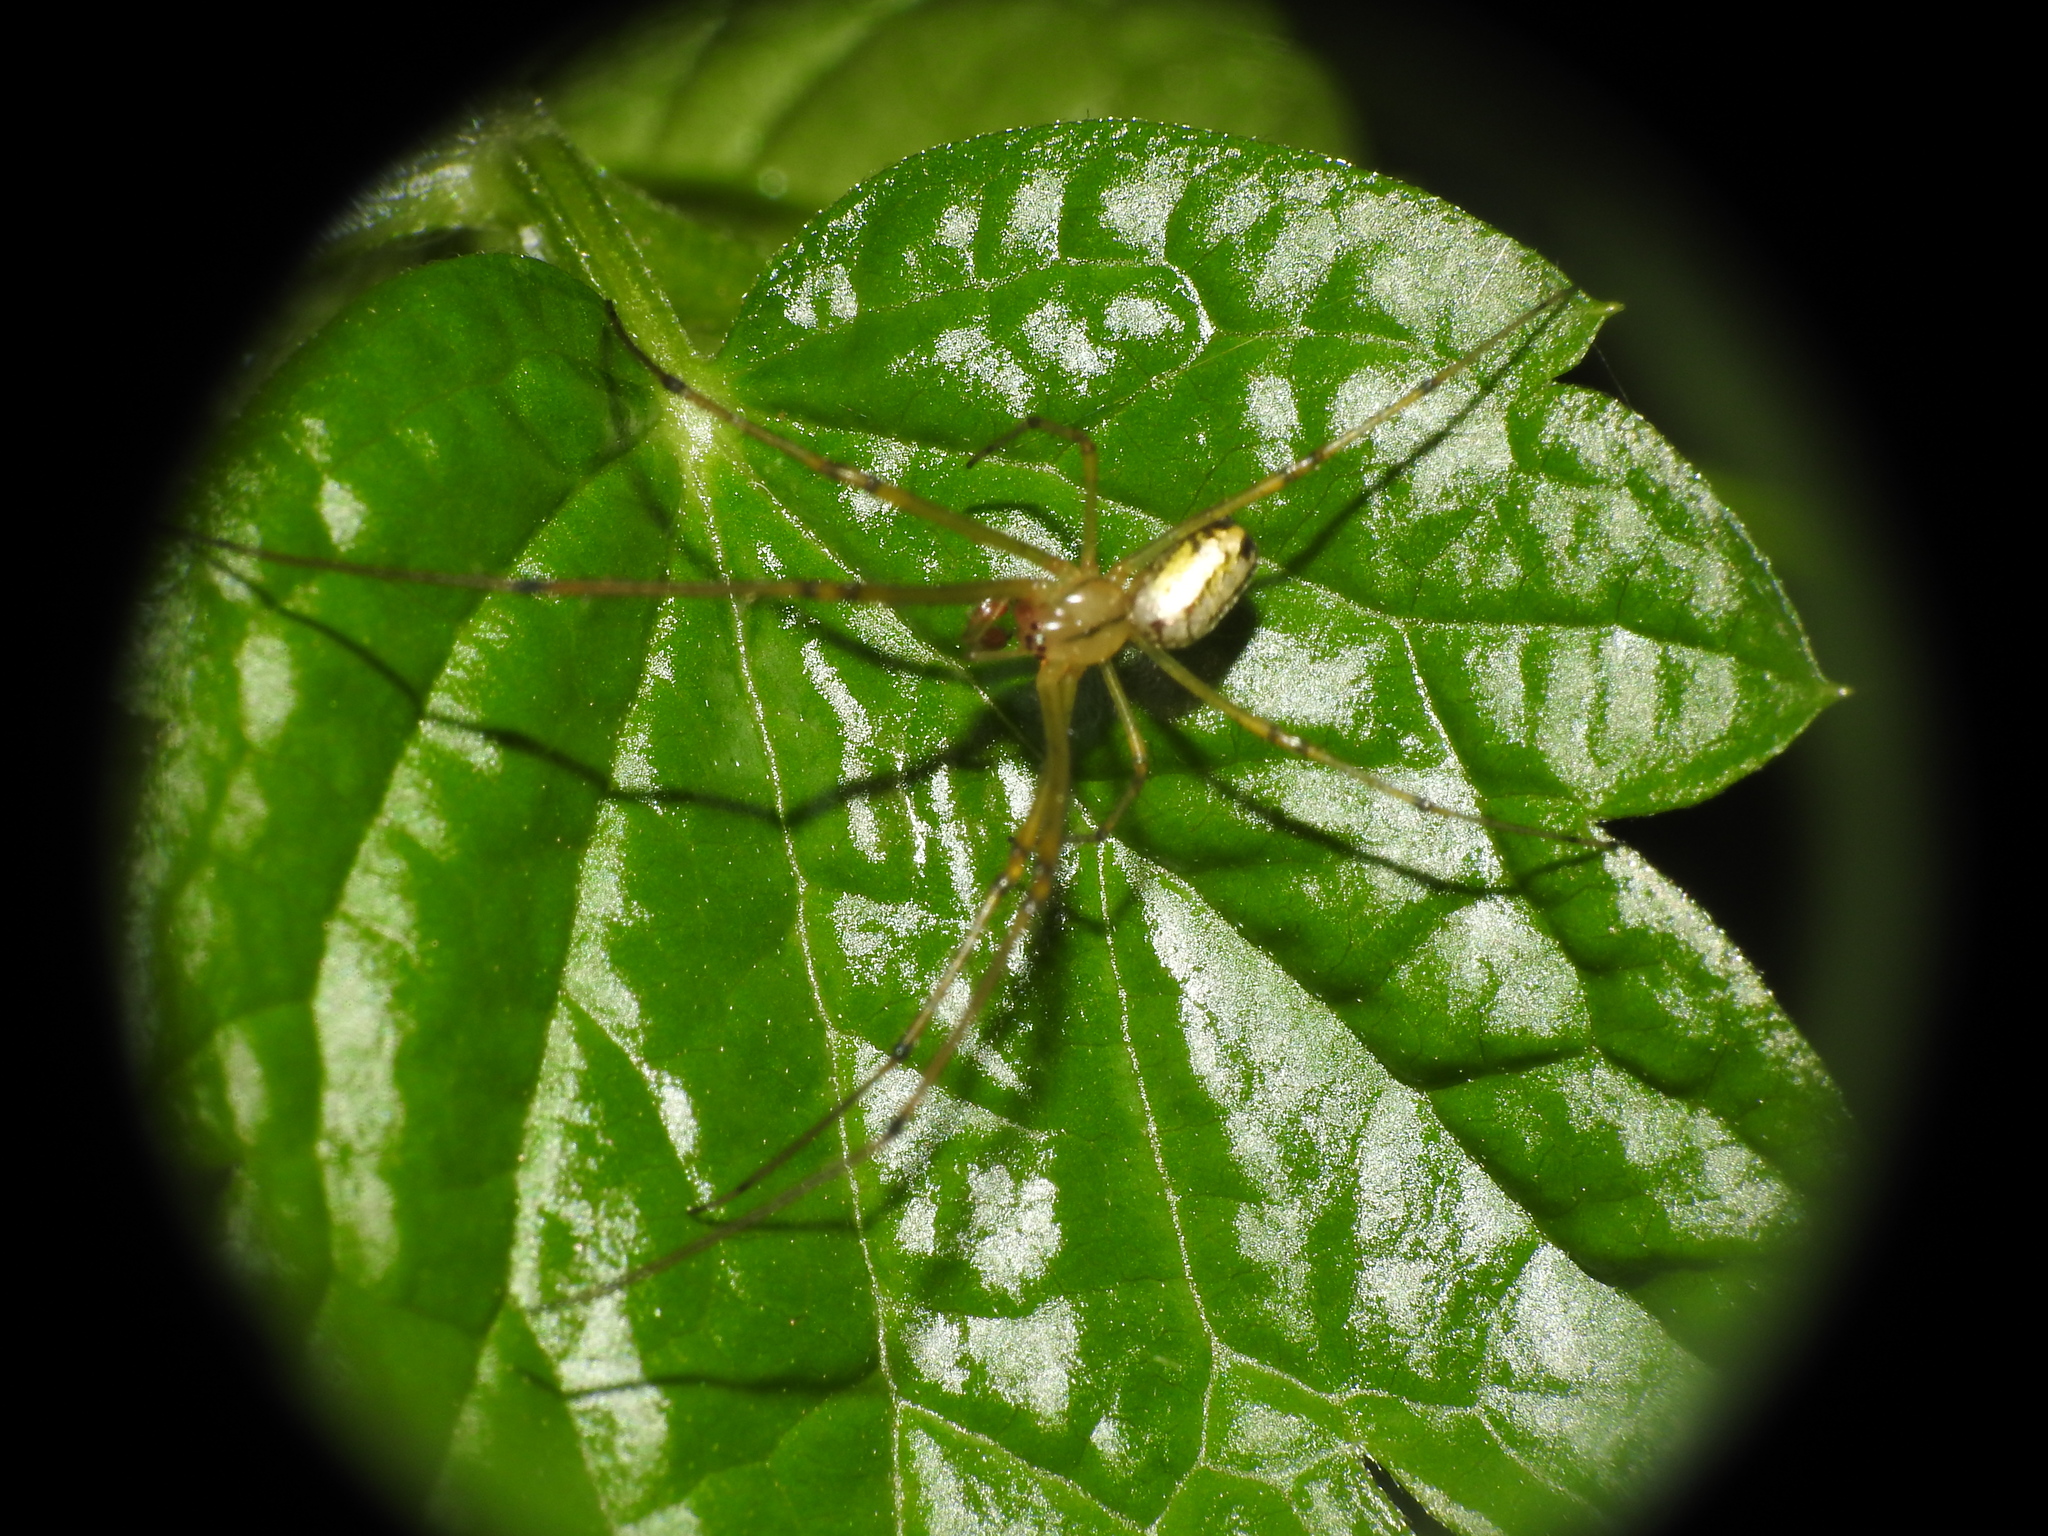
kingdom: Animalia
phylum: Arthropoda
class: Arachnida
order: Araneae
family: Tetragnathidae
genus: Leucauge
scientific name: Leucauge venusta
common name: Longjawed orb weavers
